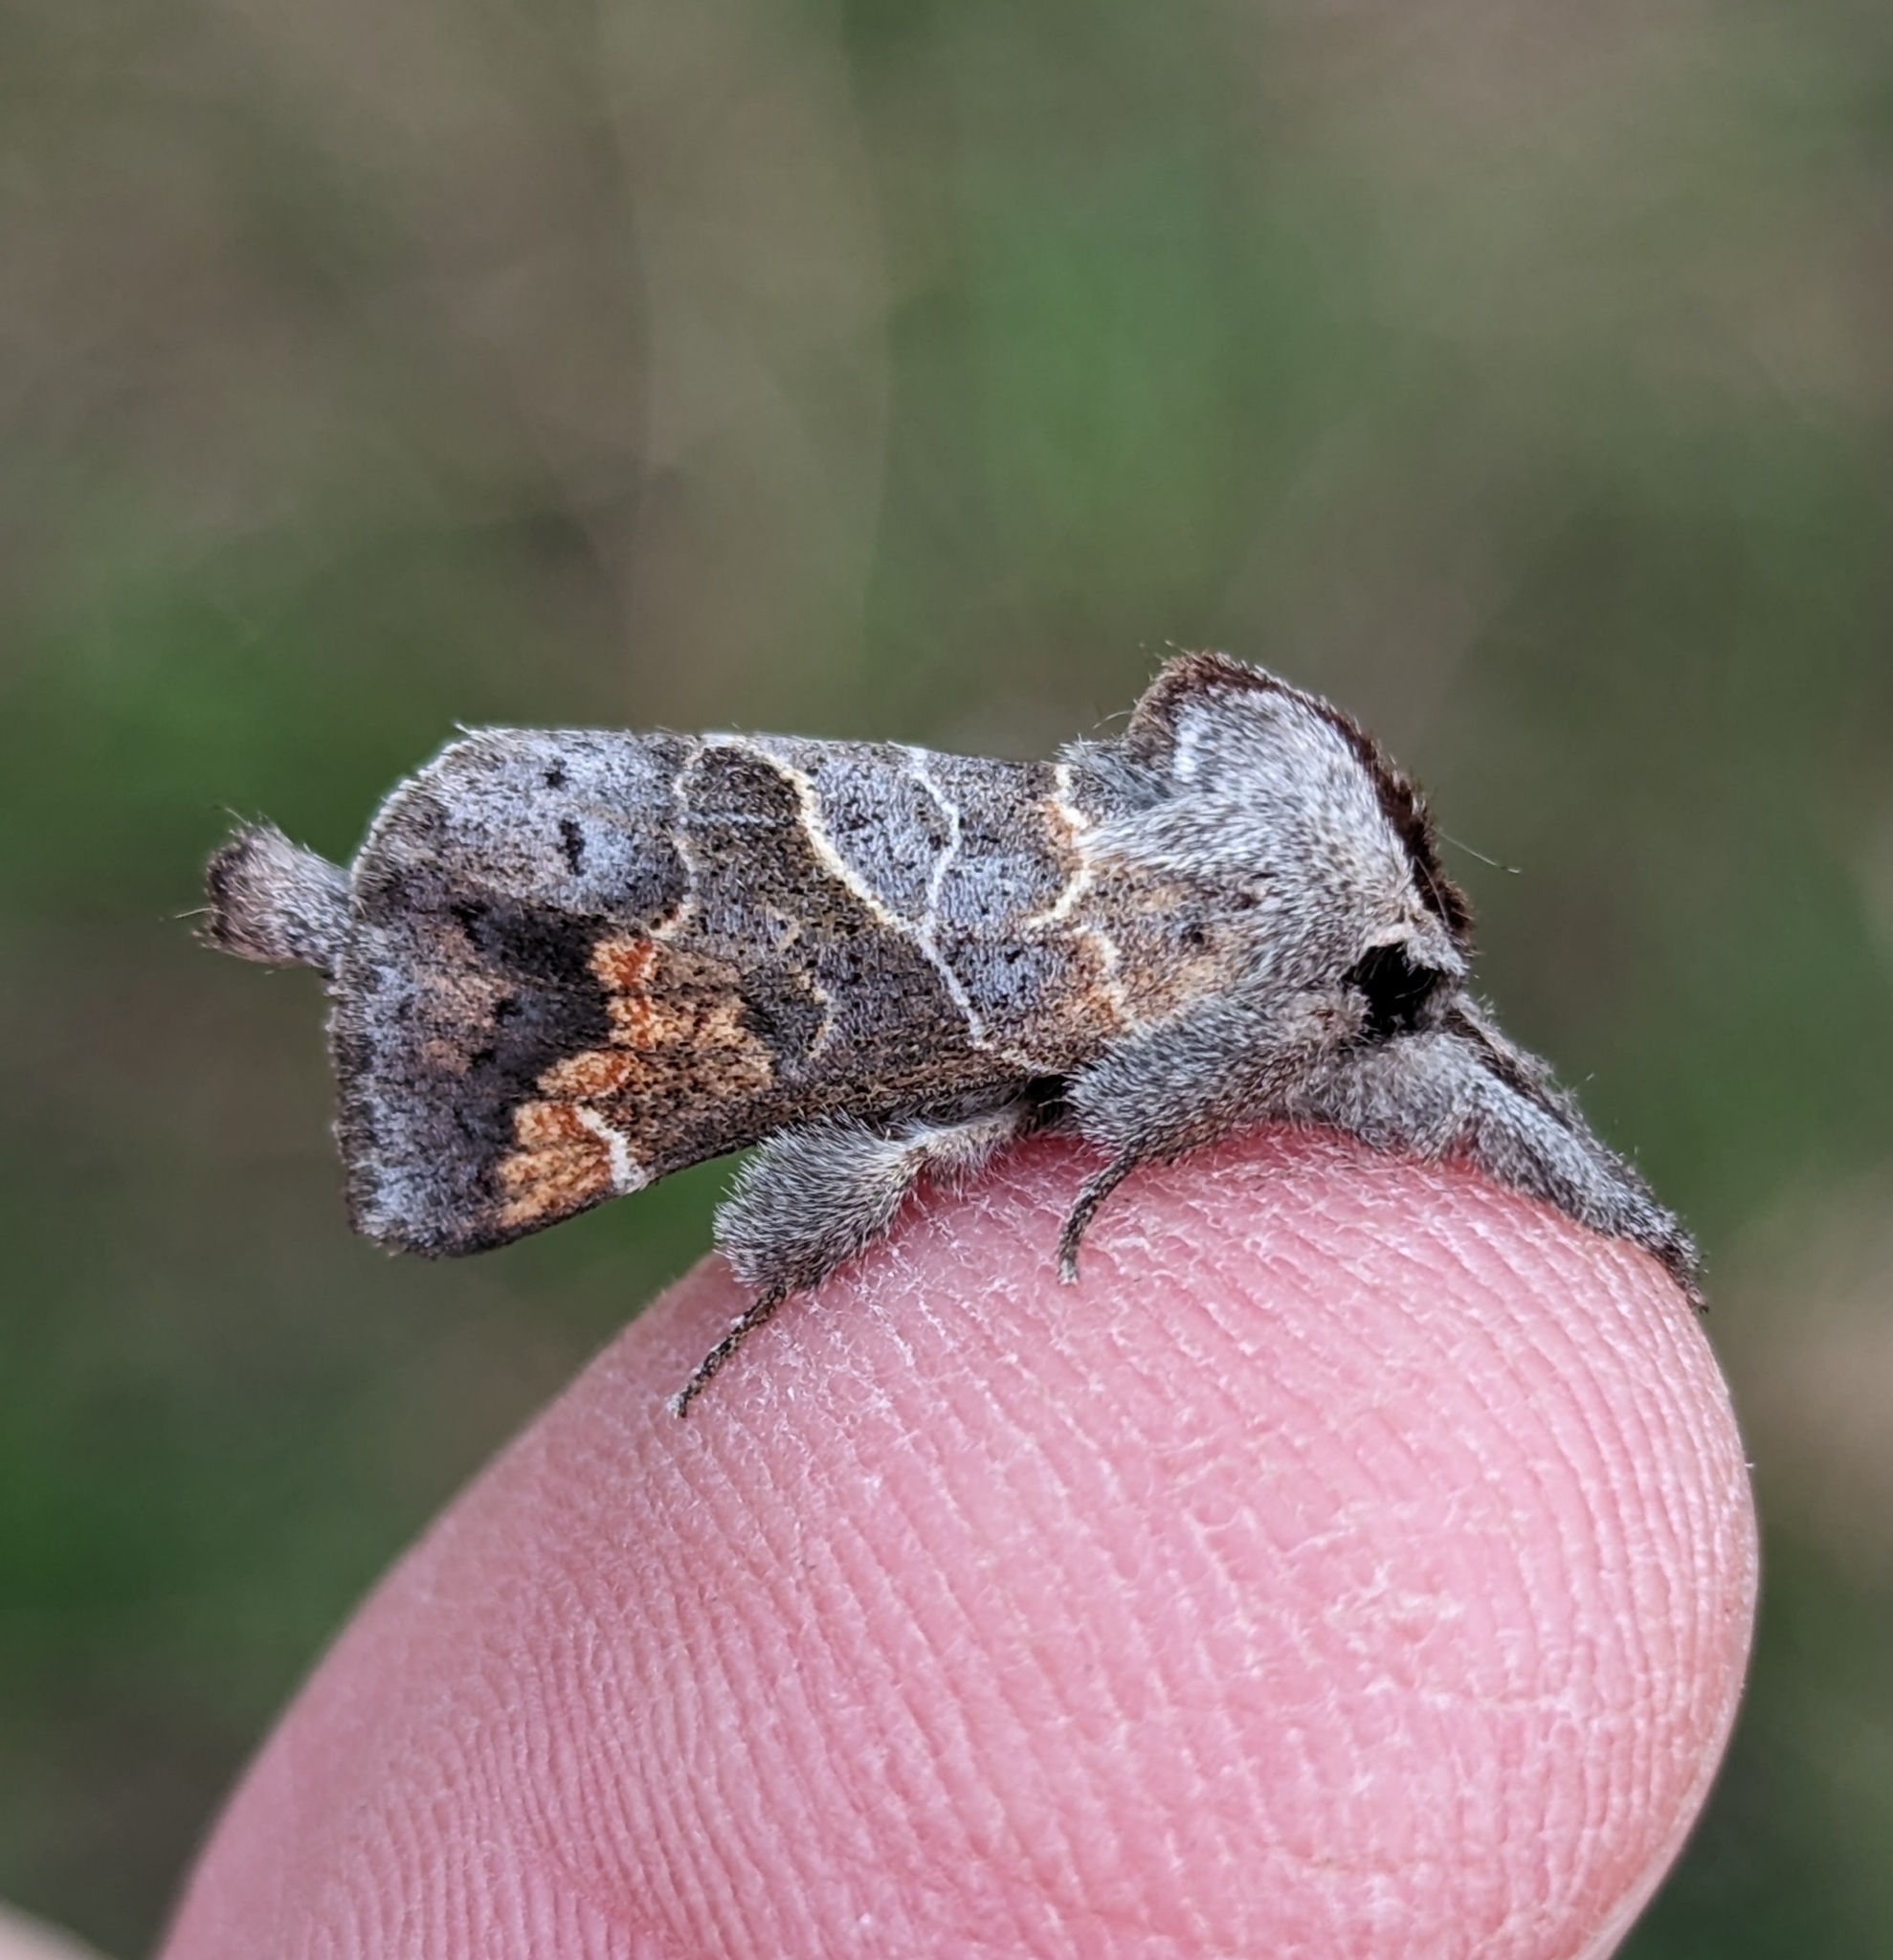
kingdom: Animalia
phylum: Arthropoda
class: Insecta
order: Lepidoptera
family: Notodontidae
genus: Clostera
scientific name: Clostera apicalis
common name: Apical prominent
